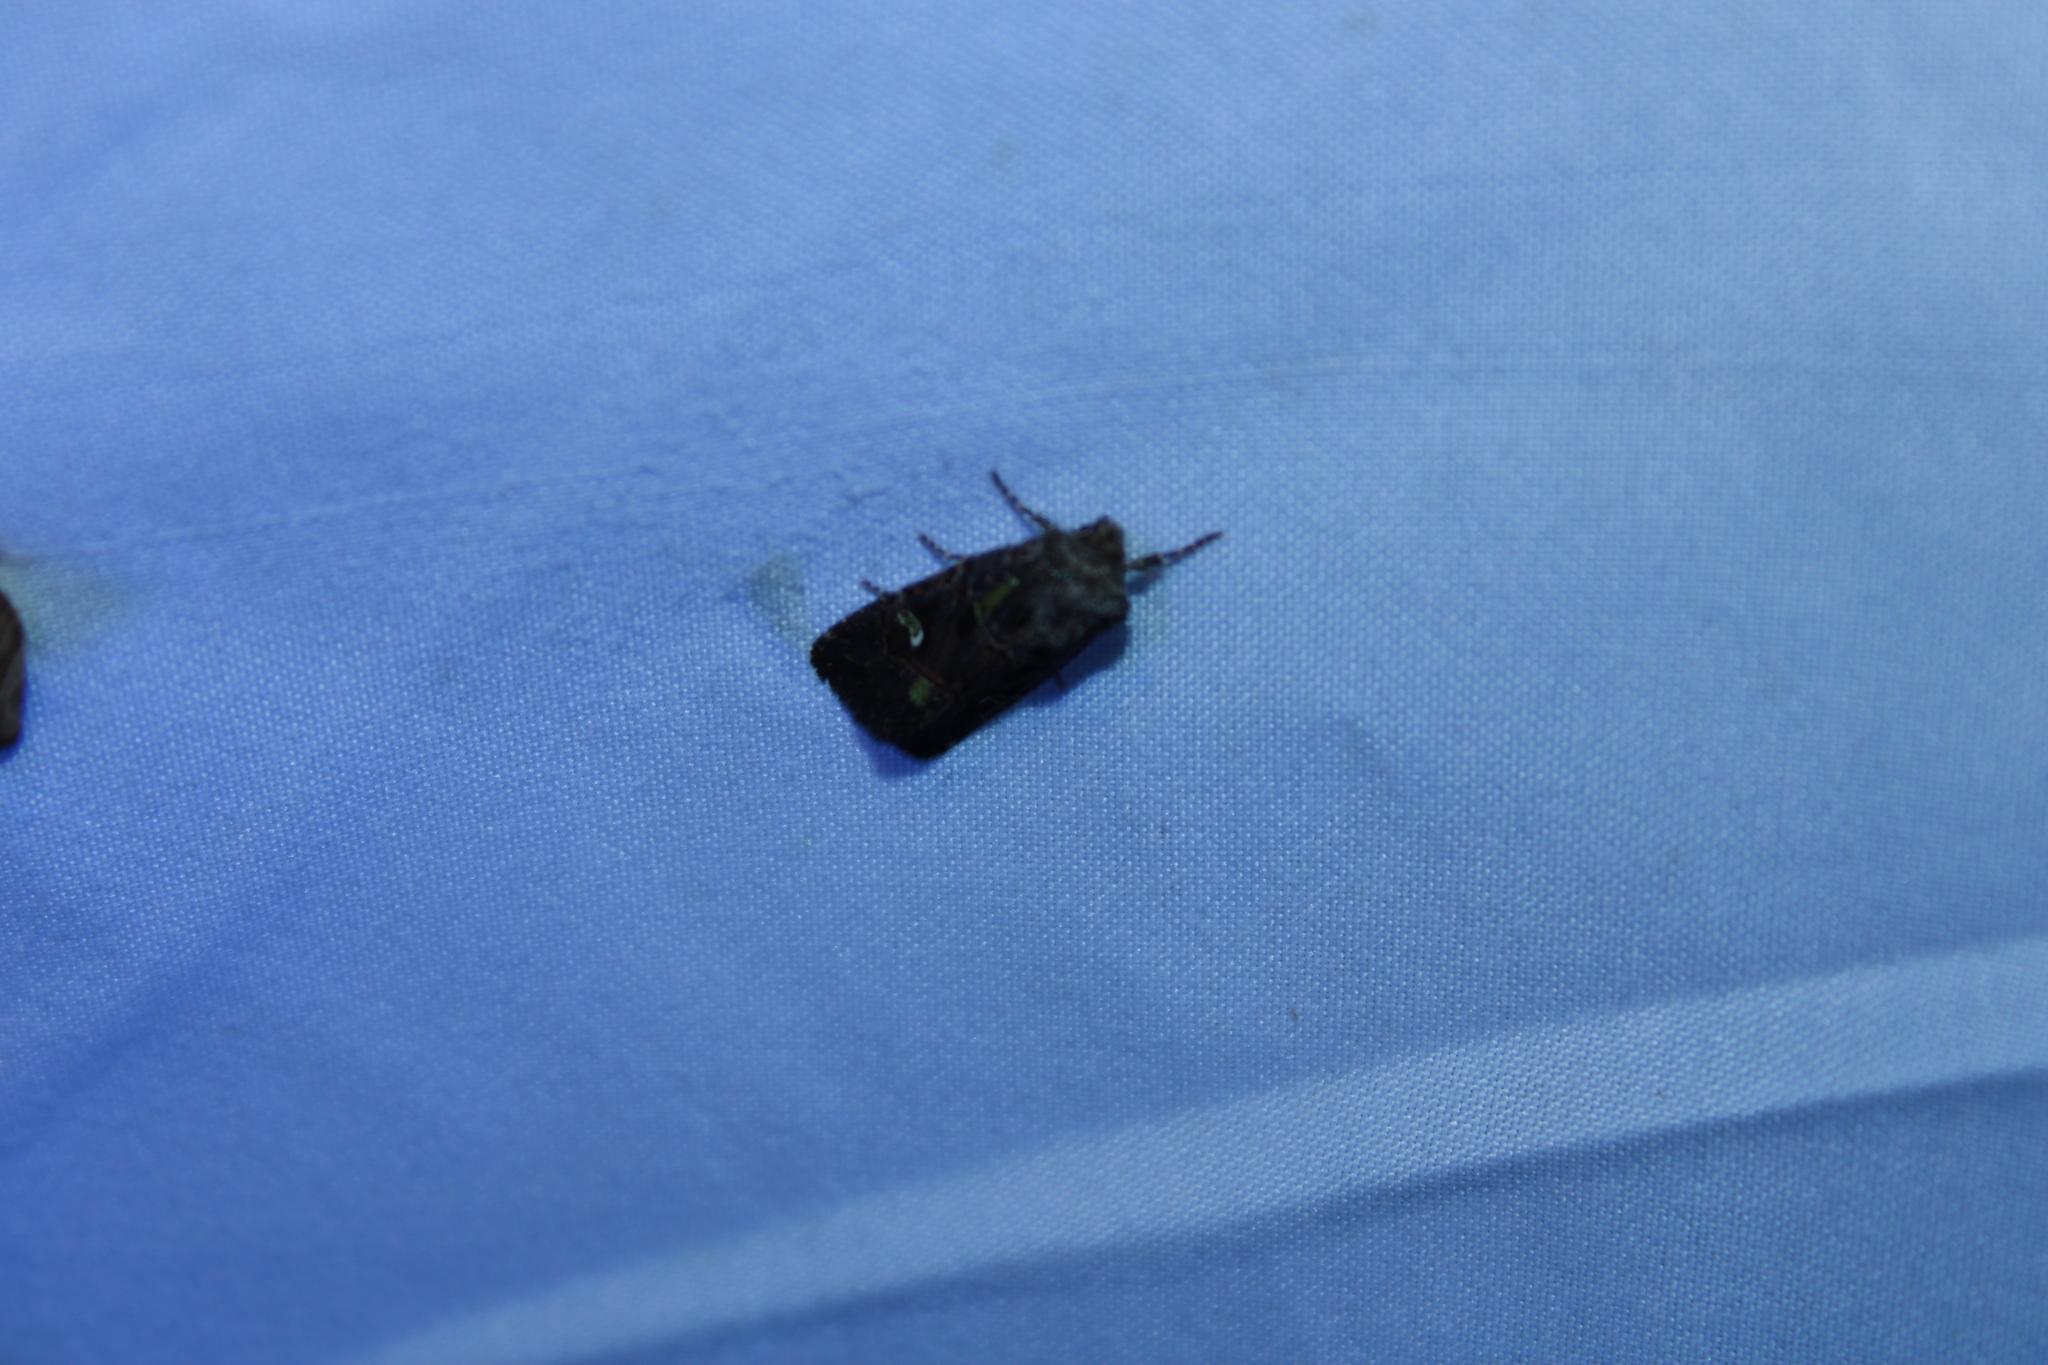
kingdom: Animalia
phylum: Arthropoda
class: Insecta
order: Lepidoptera
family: Noctuidae
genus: Lacinipolia
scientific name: Lacinipolia renigera
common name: Kidney-spotted minor
